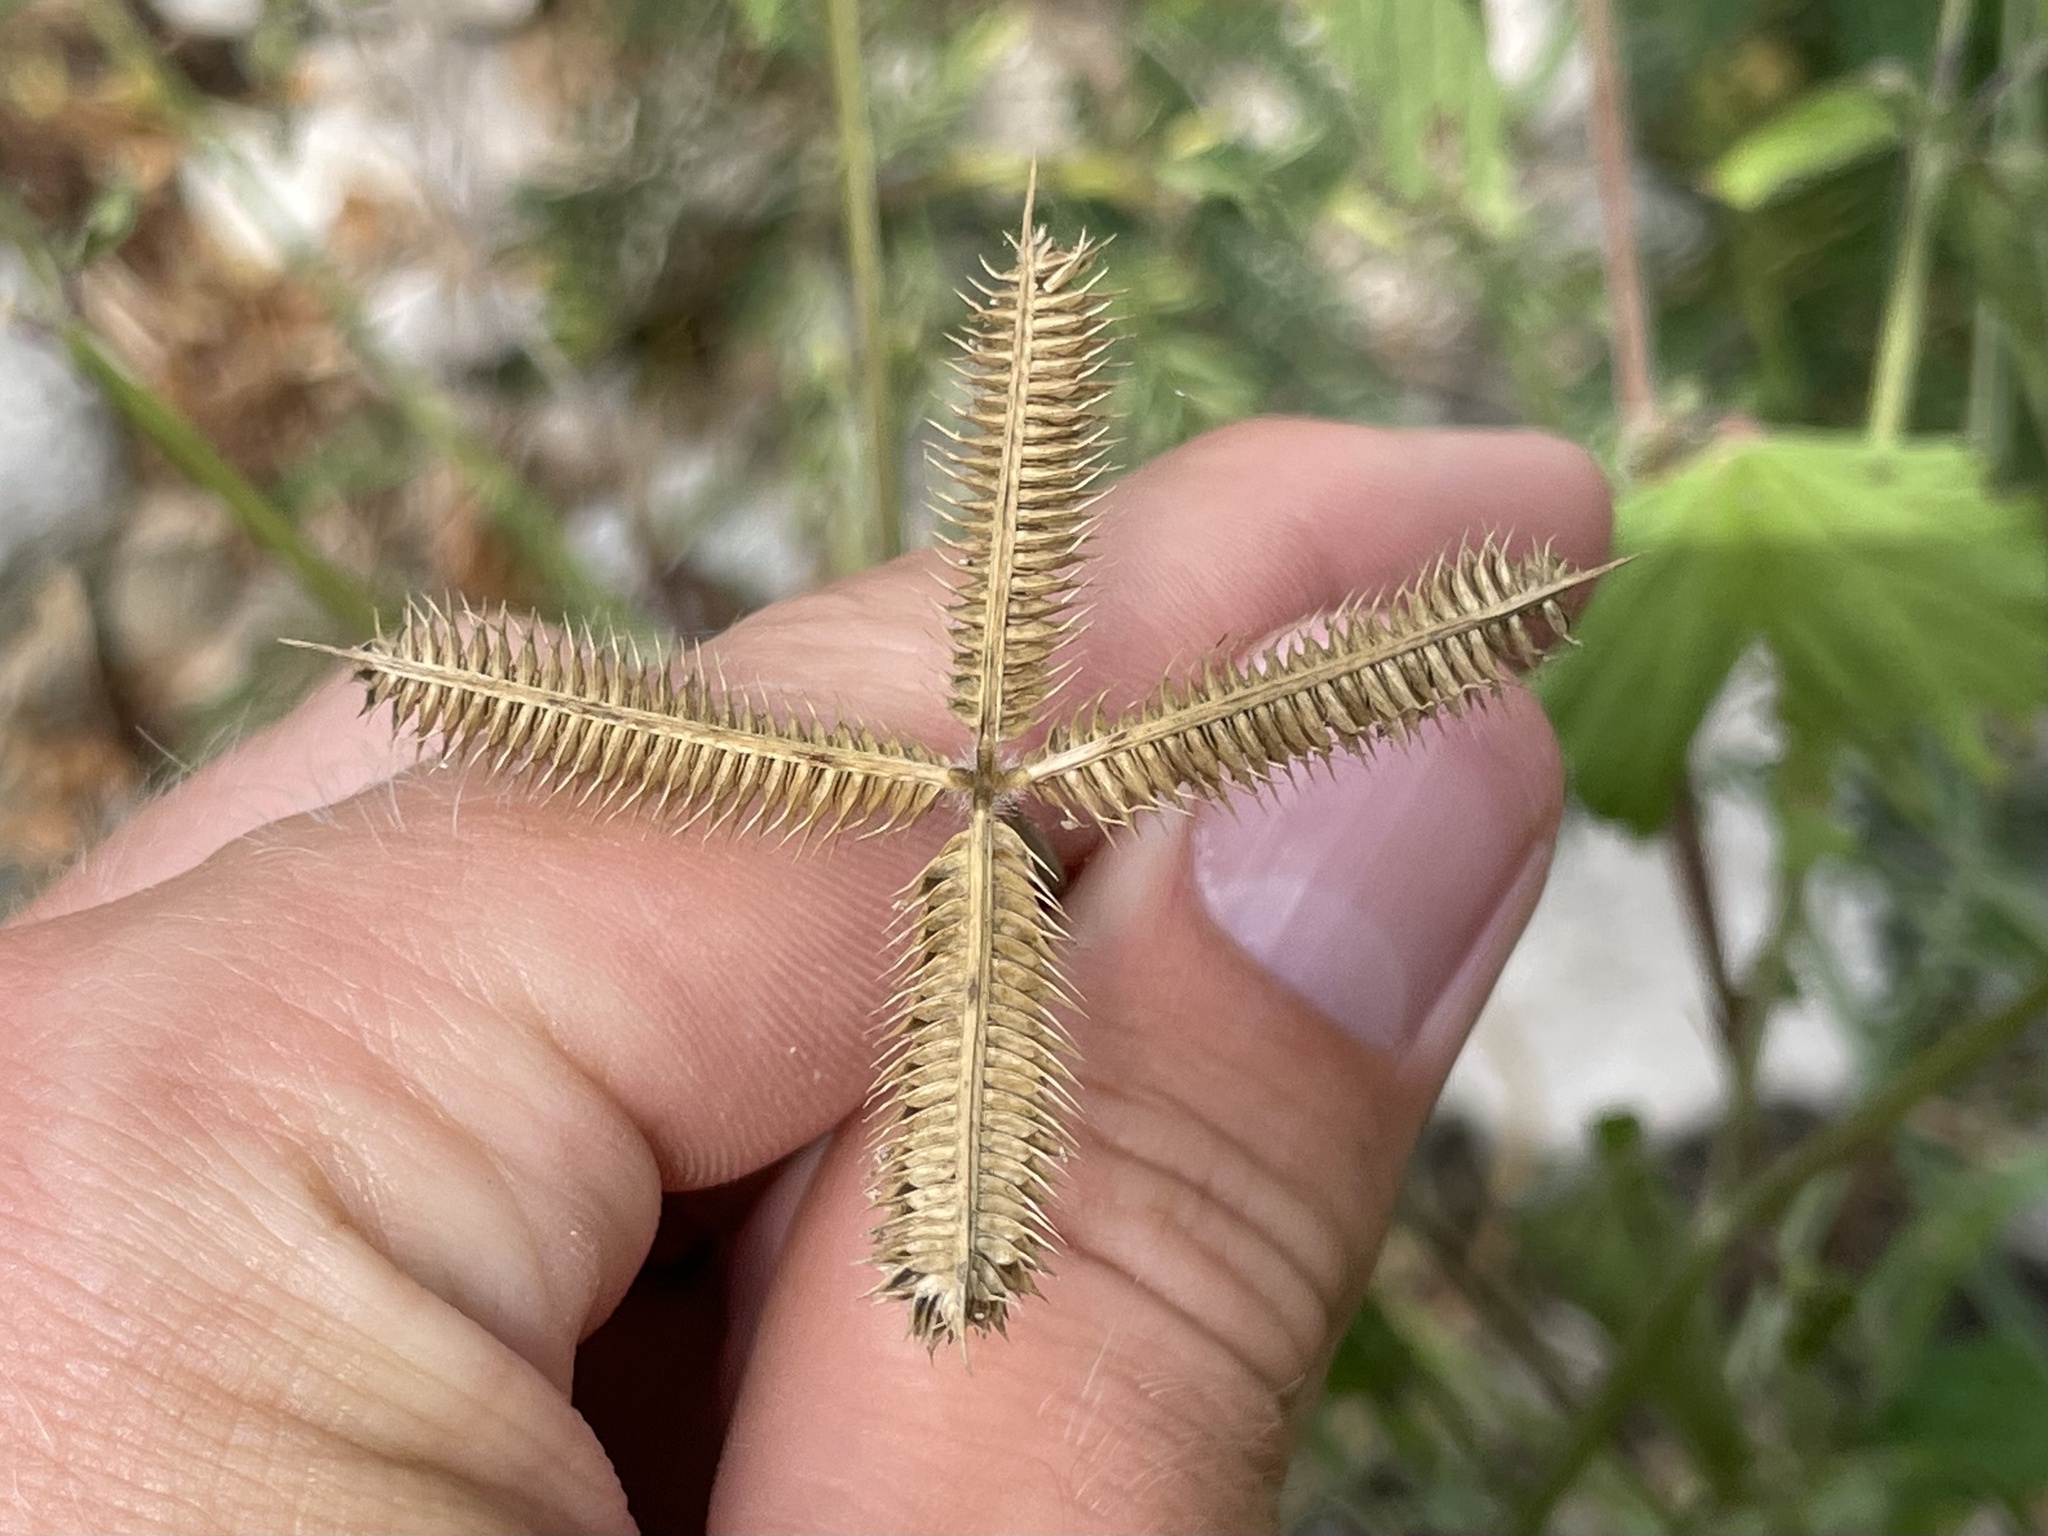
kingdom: Plantae
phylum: Tracheophyta
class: Liliopsida
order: Poales
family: Poaceae
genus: Dactyloctenium
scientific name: Dactyloctenium aegyptium
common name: Egyptian grass
